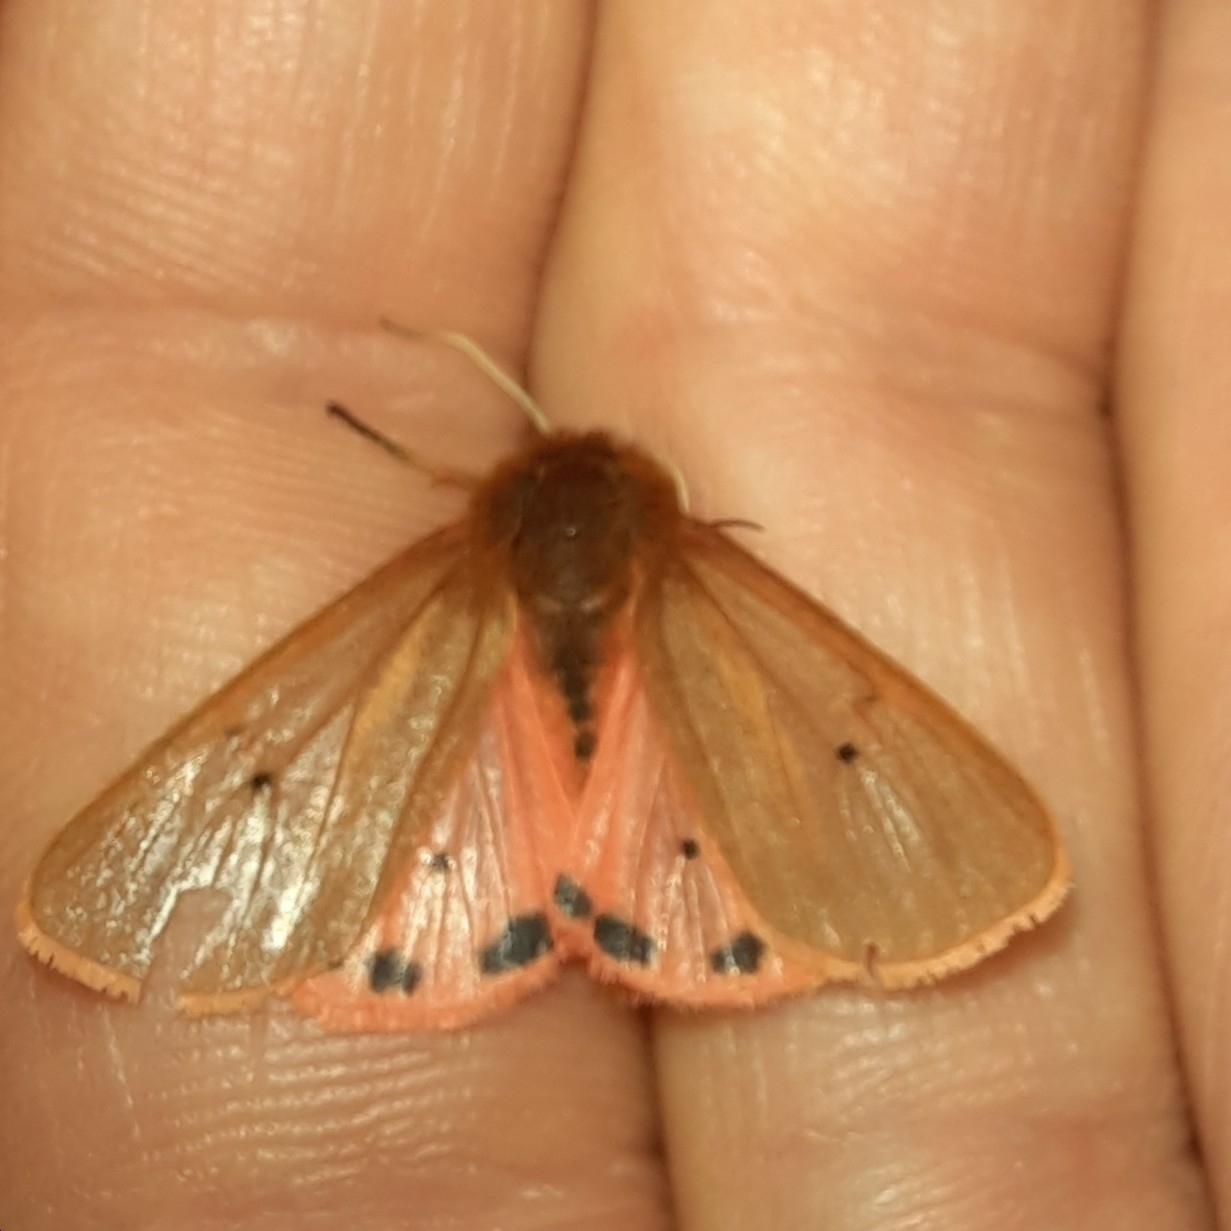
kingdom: Animalia
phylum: Arthropoda
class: Insecta
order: Lepidoptera
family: Erebidae
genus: Phragmatobia
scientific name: Phragmatobia fuliginosa
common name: Ruby tiger
